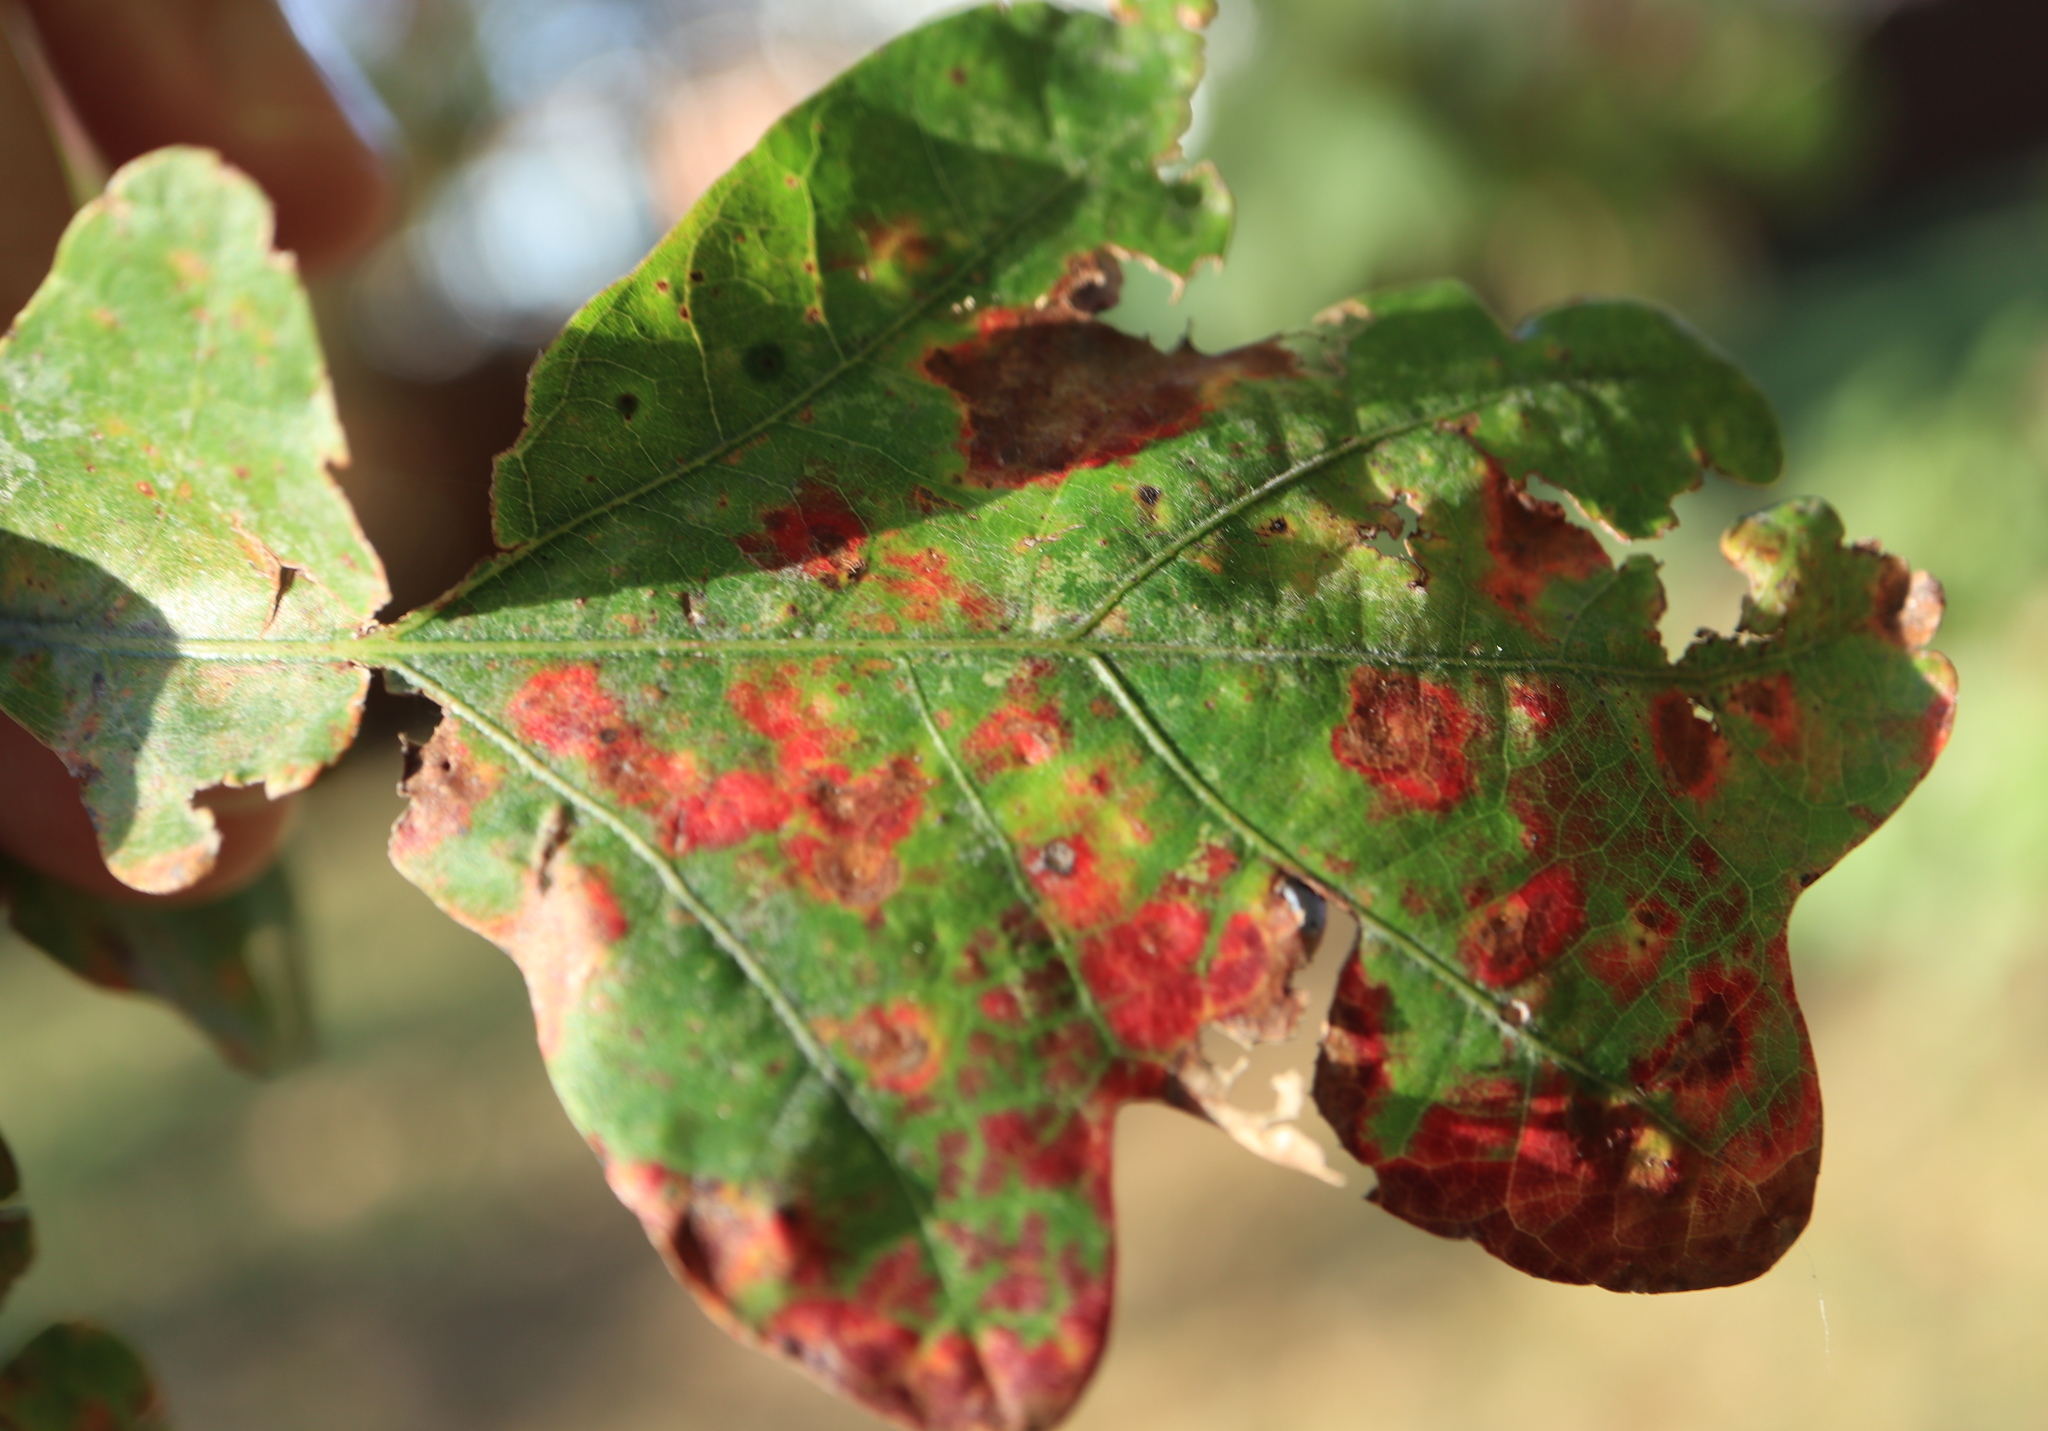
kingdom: Animalia
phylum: Arthropoda
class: Insecta
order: Hymenoptera
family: Cynipidae
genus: Phylloteras
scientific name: Phylloteras poculum
